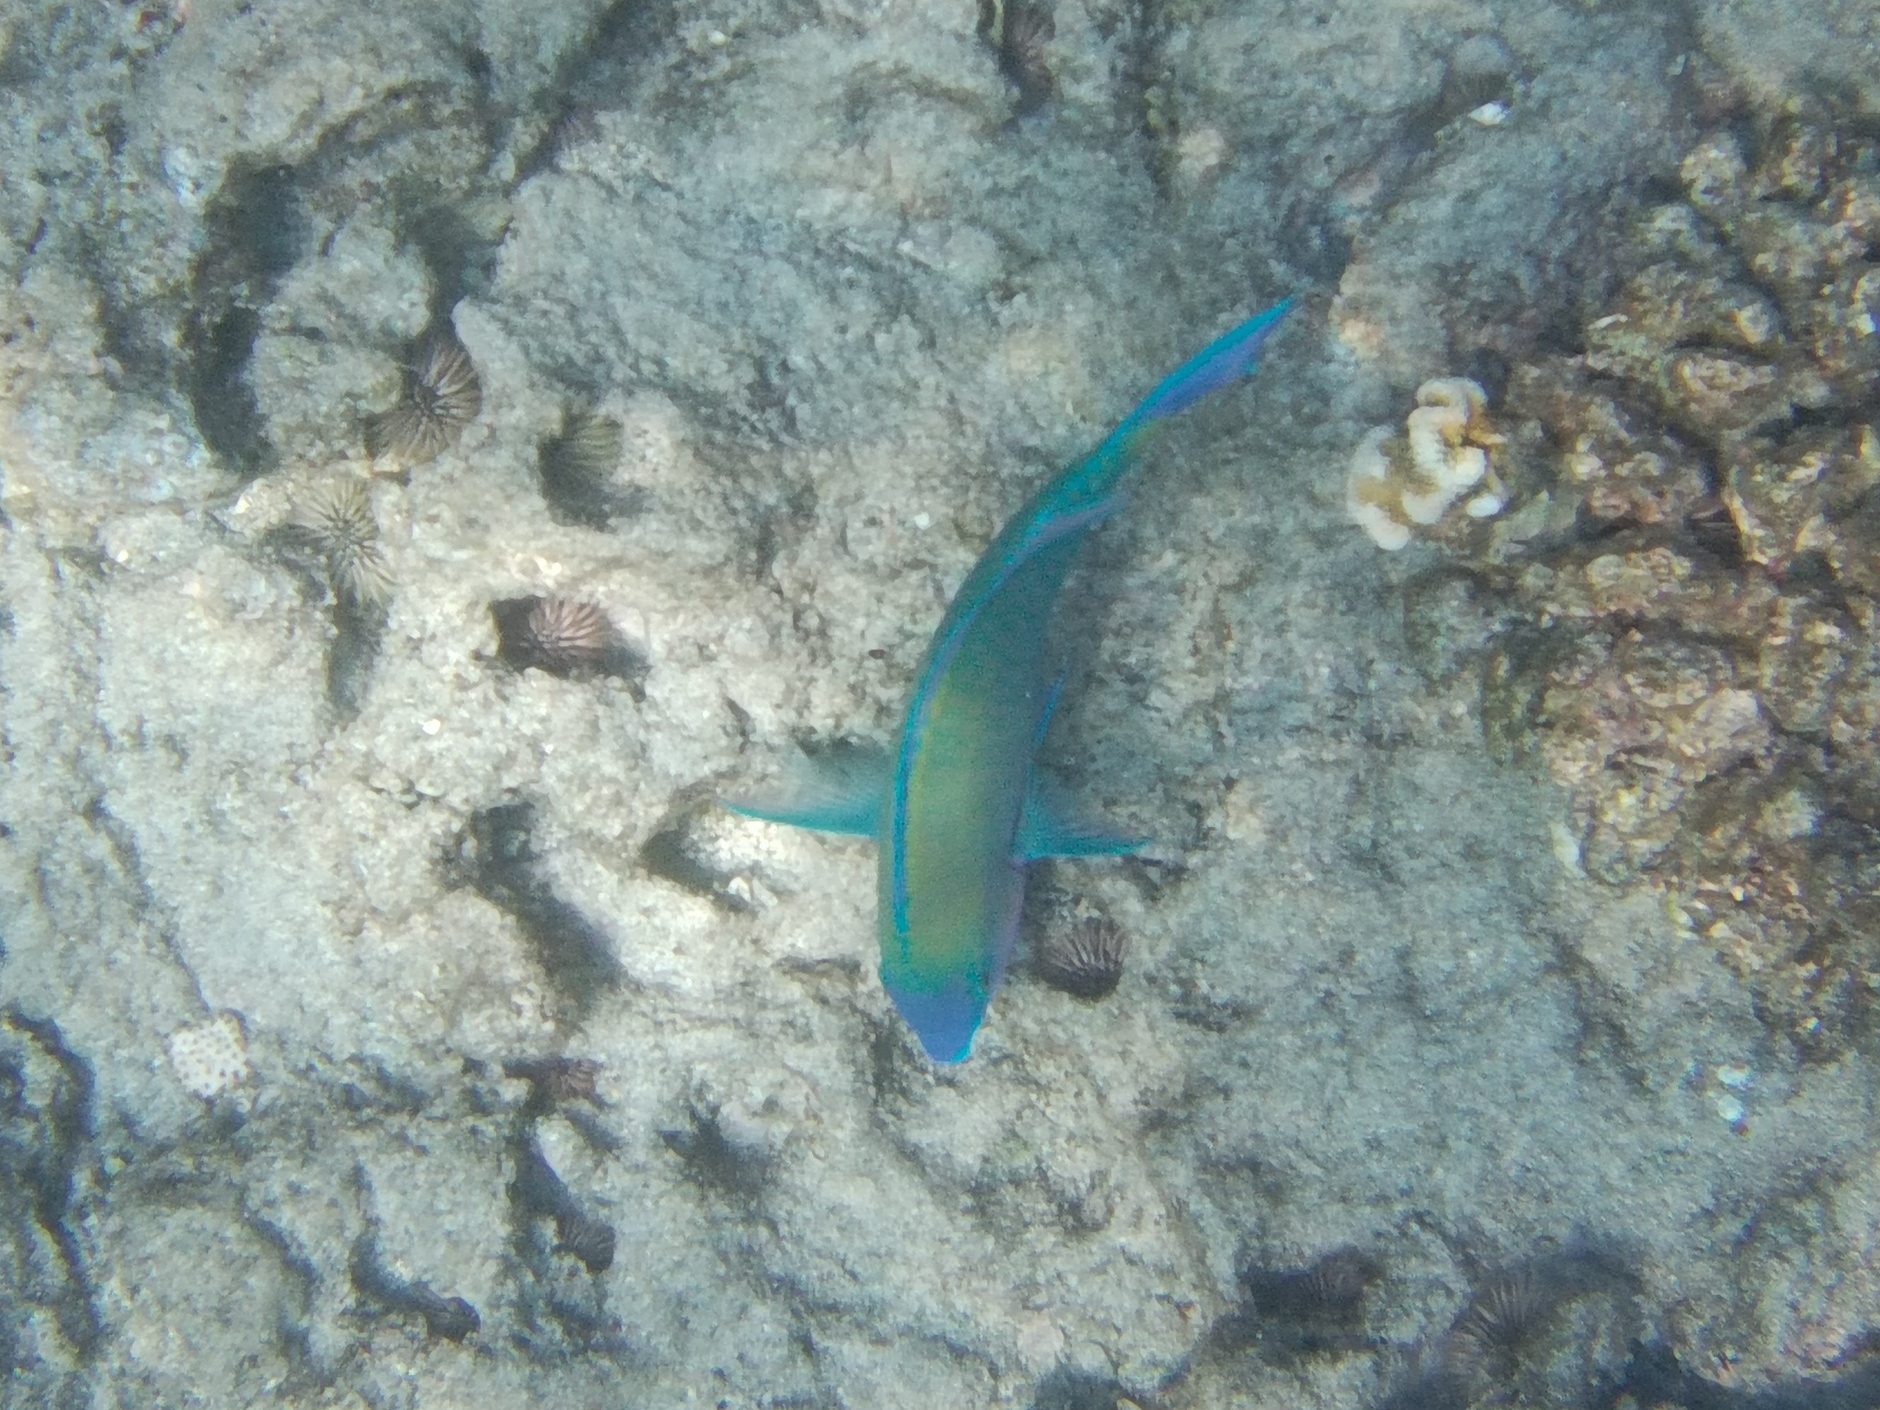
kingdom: Animalia
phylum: Chordata
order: Perciformes
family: Scaridae
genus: Scarus
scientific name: Scarus psittacus
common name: Palenose parrotfish
